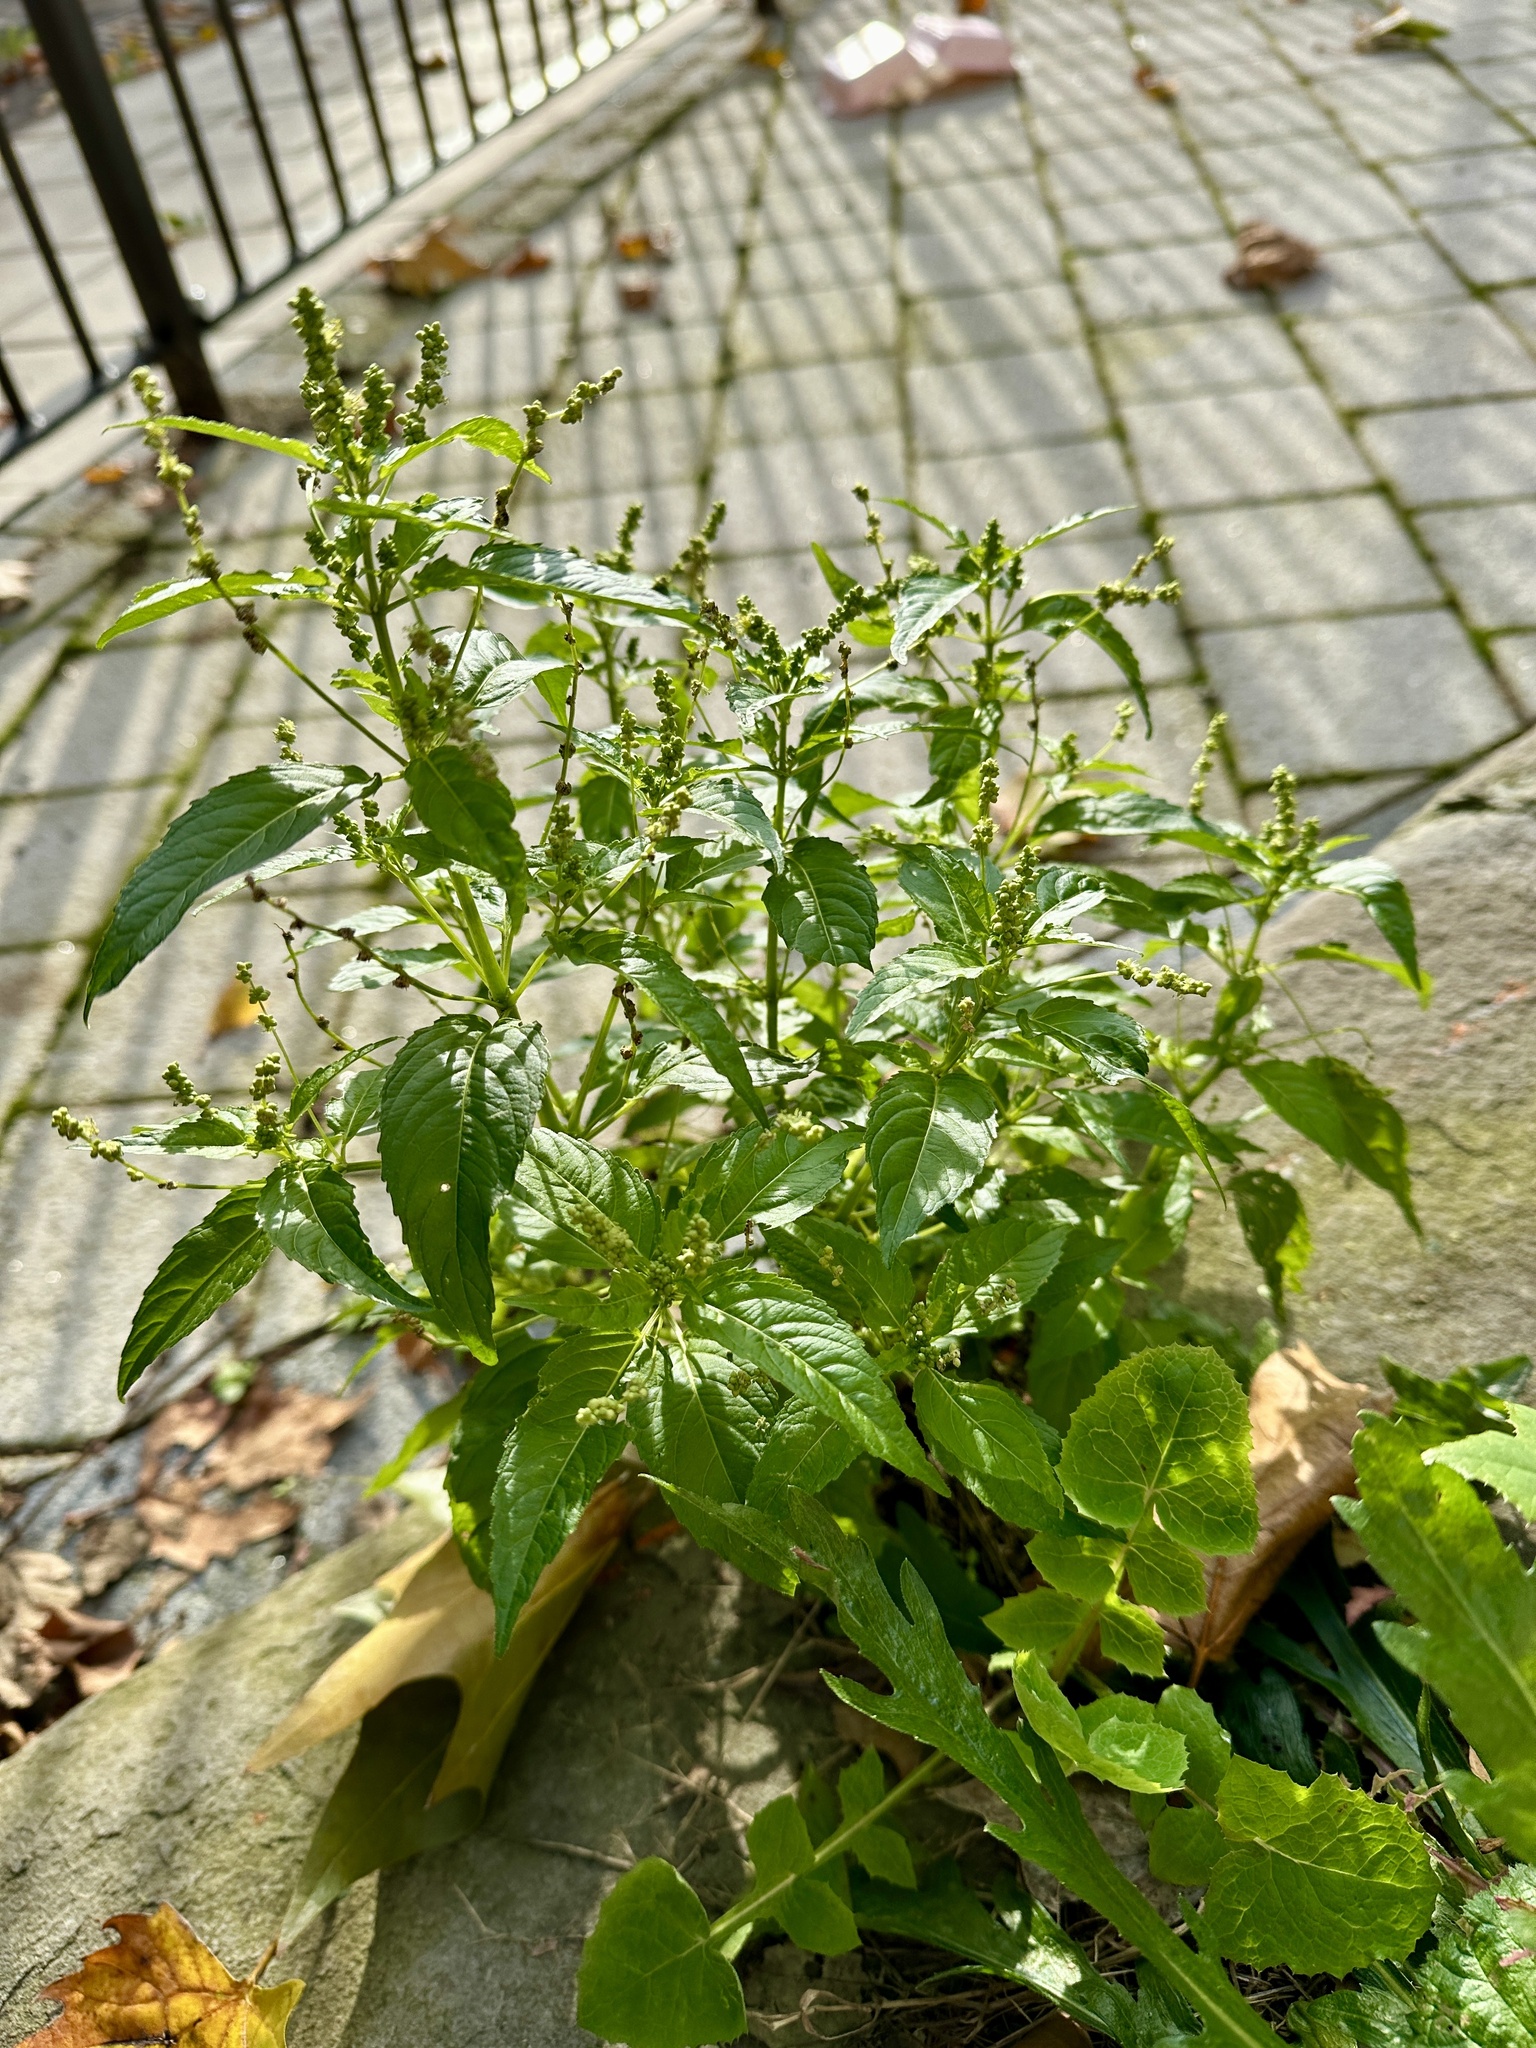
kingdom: Plantae
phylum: Tracheophyta
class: Magnoliopsida
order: Malpighiales
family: Euphorbiaceae
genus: Mercurialis
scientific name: Mercurialis annua
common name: Annual mercury
